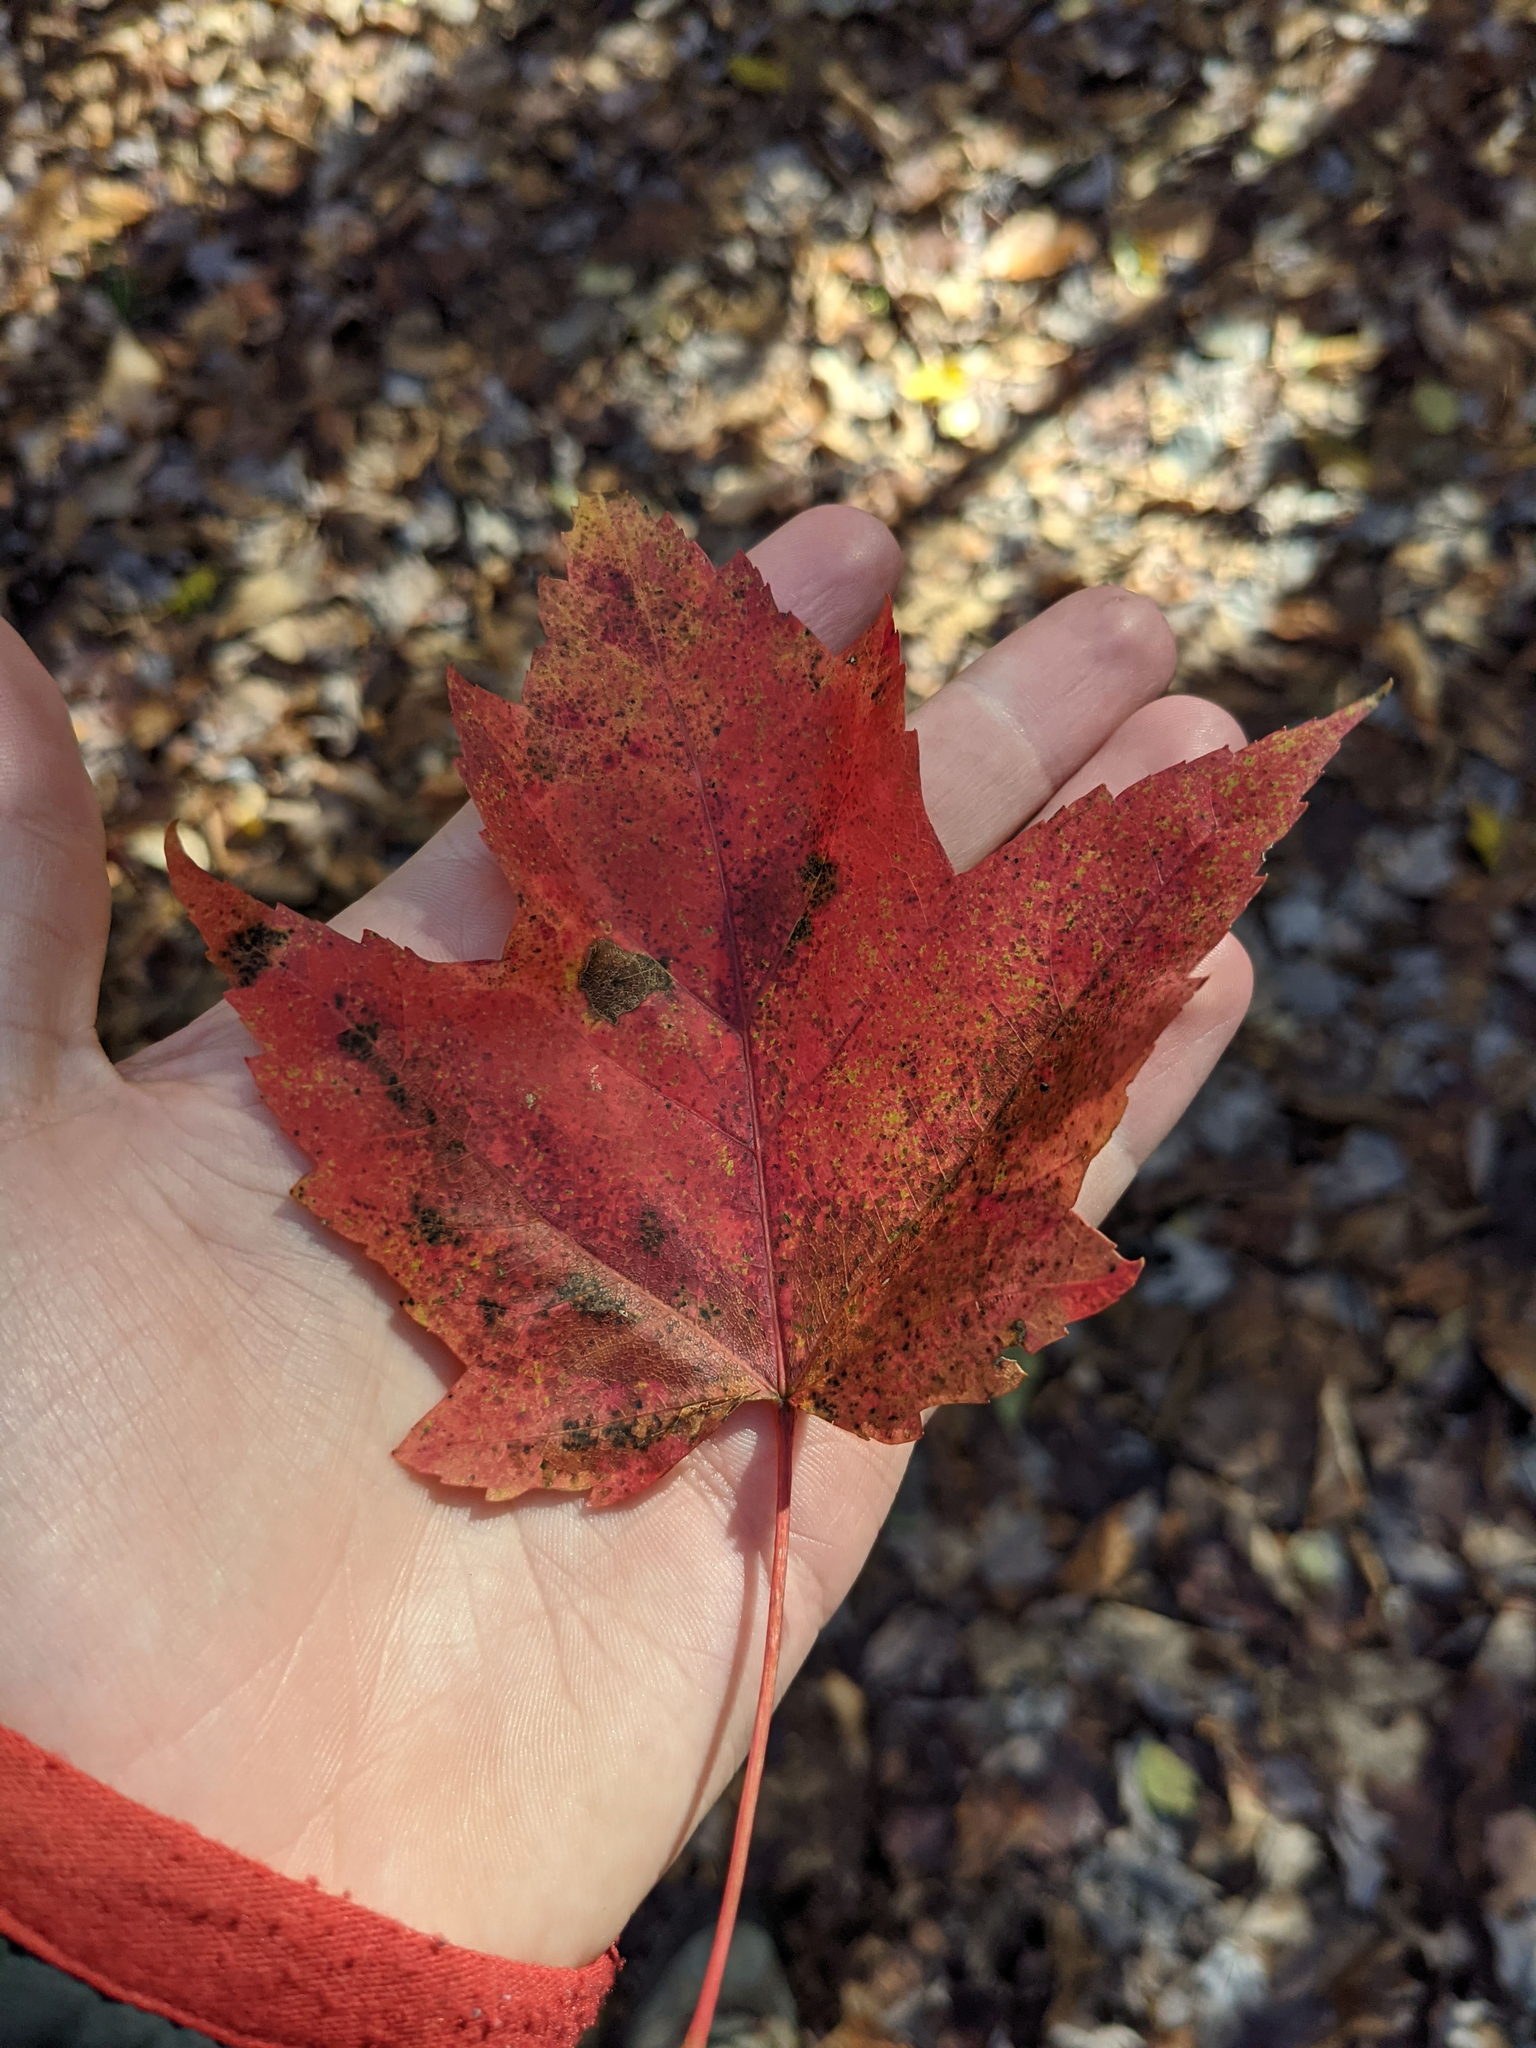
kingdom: Plantae
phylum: Tracheophyta
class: Magnoliopsida
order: Sapindales
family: Sapindaceae
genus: Acer
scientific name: Acer rubrum
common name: Red maple
